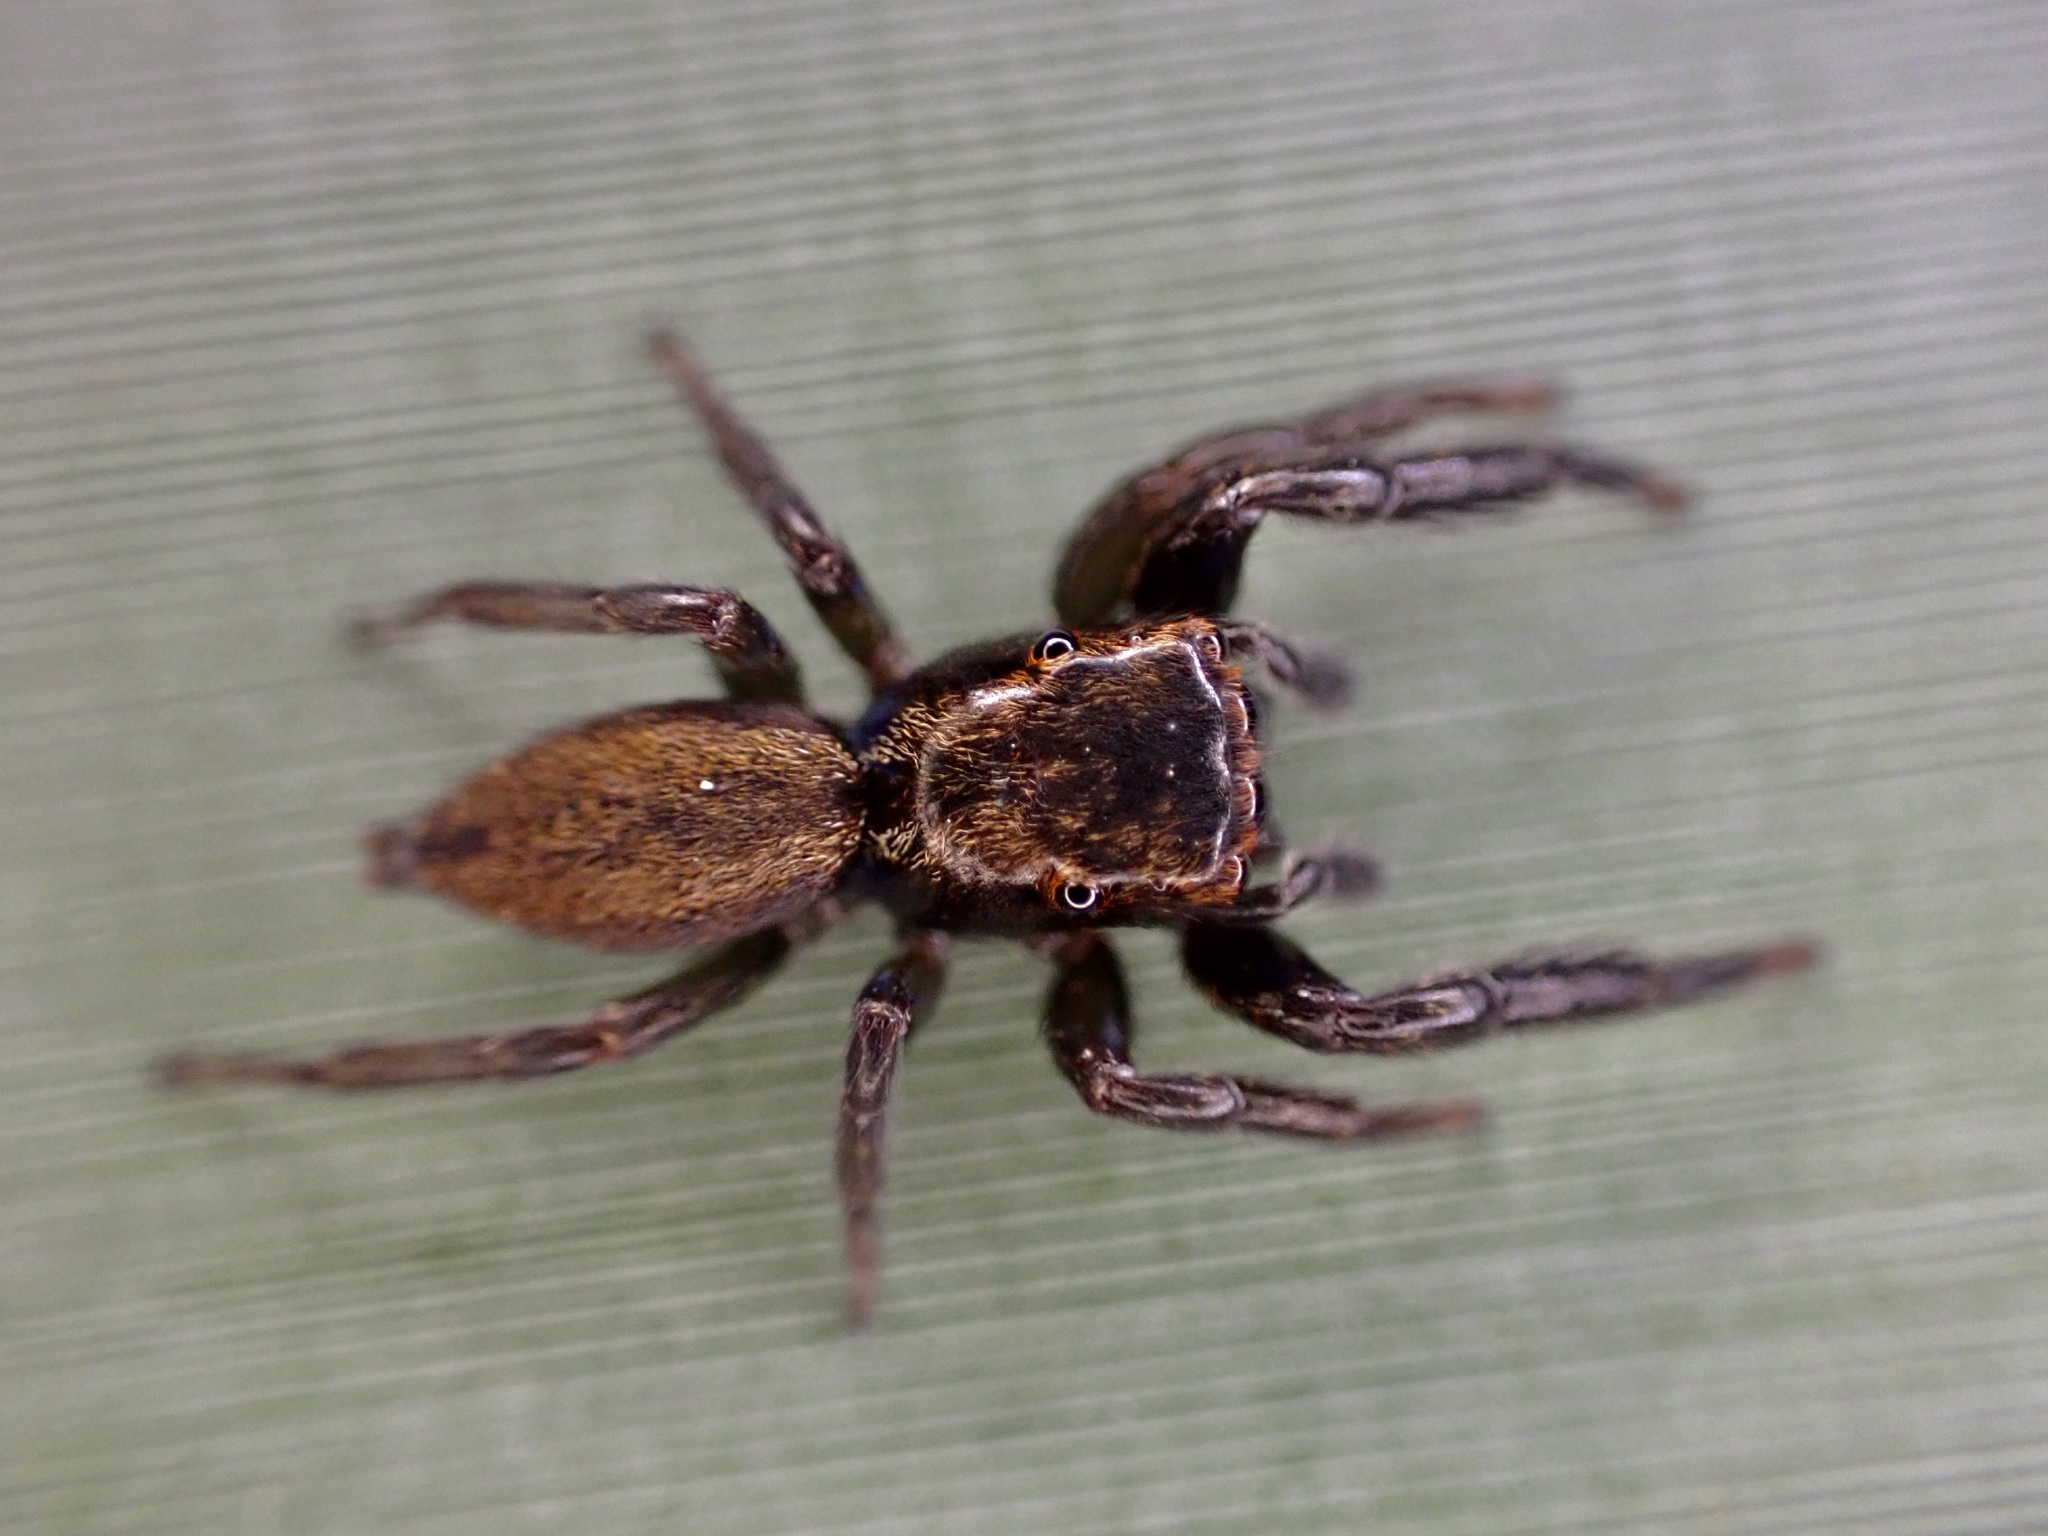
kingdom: Animalia
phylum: Arthropoda
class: Arachnida
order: Araneae
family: Salticidae
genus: Trite
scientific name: Trite auricoma
